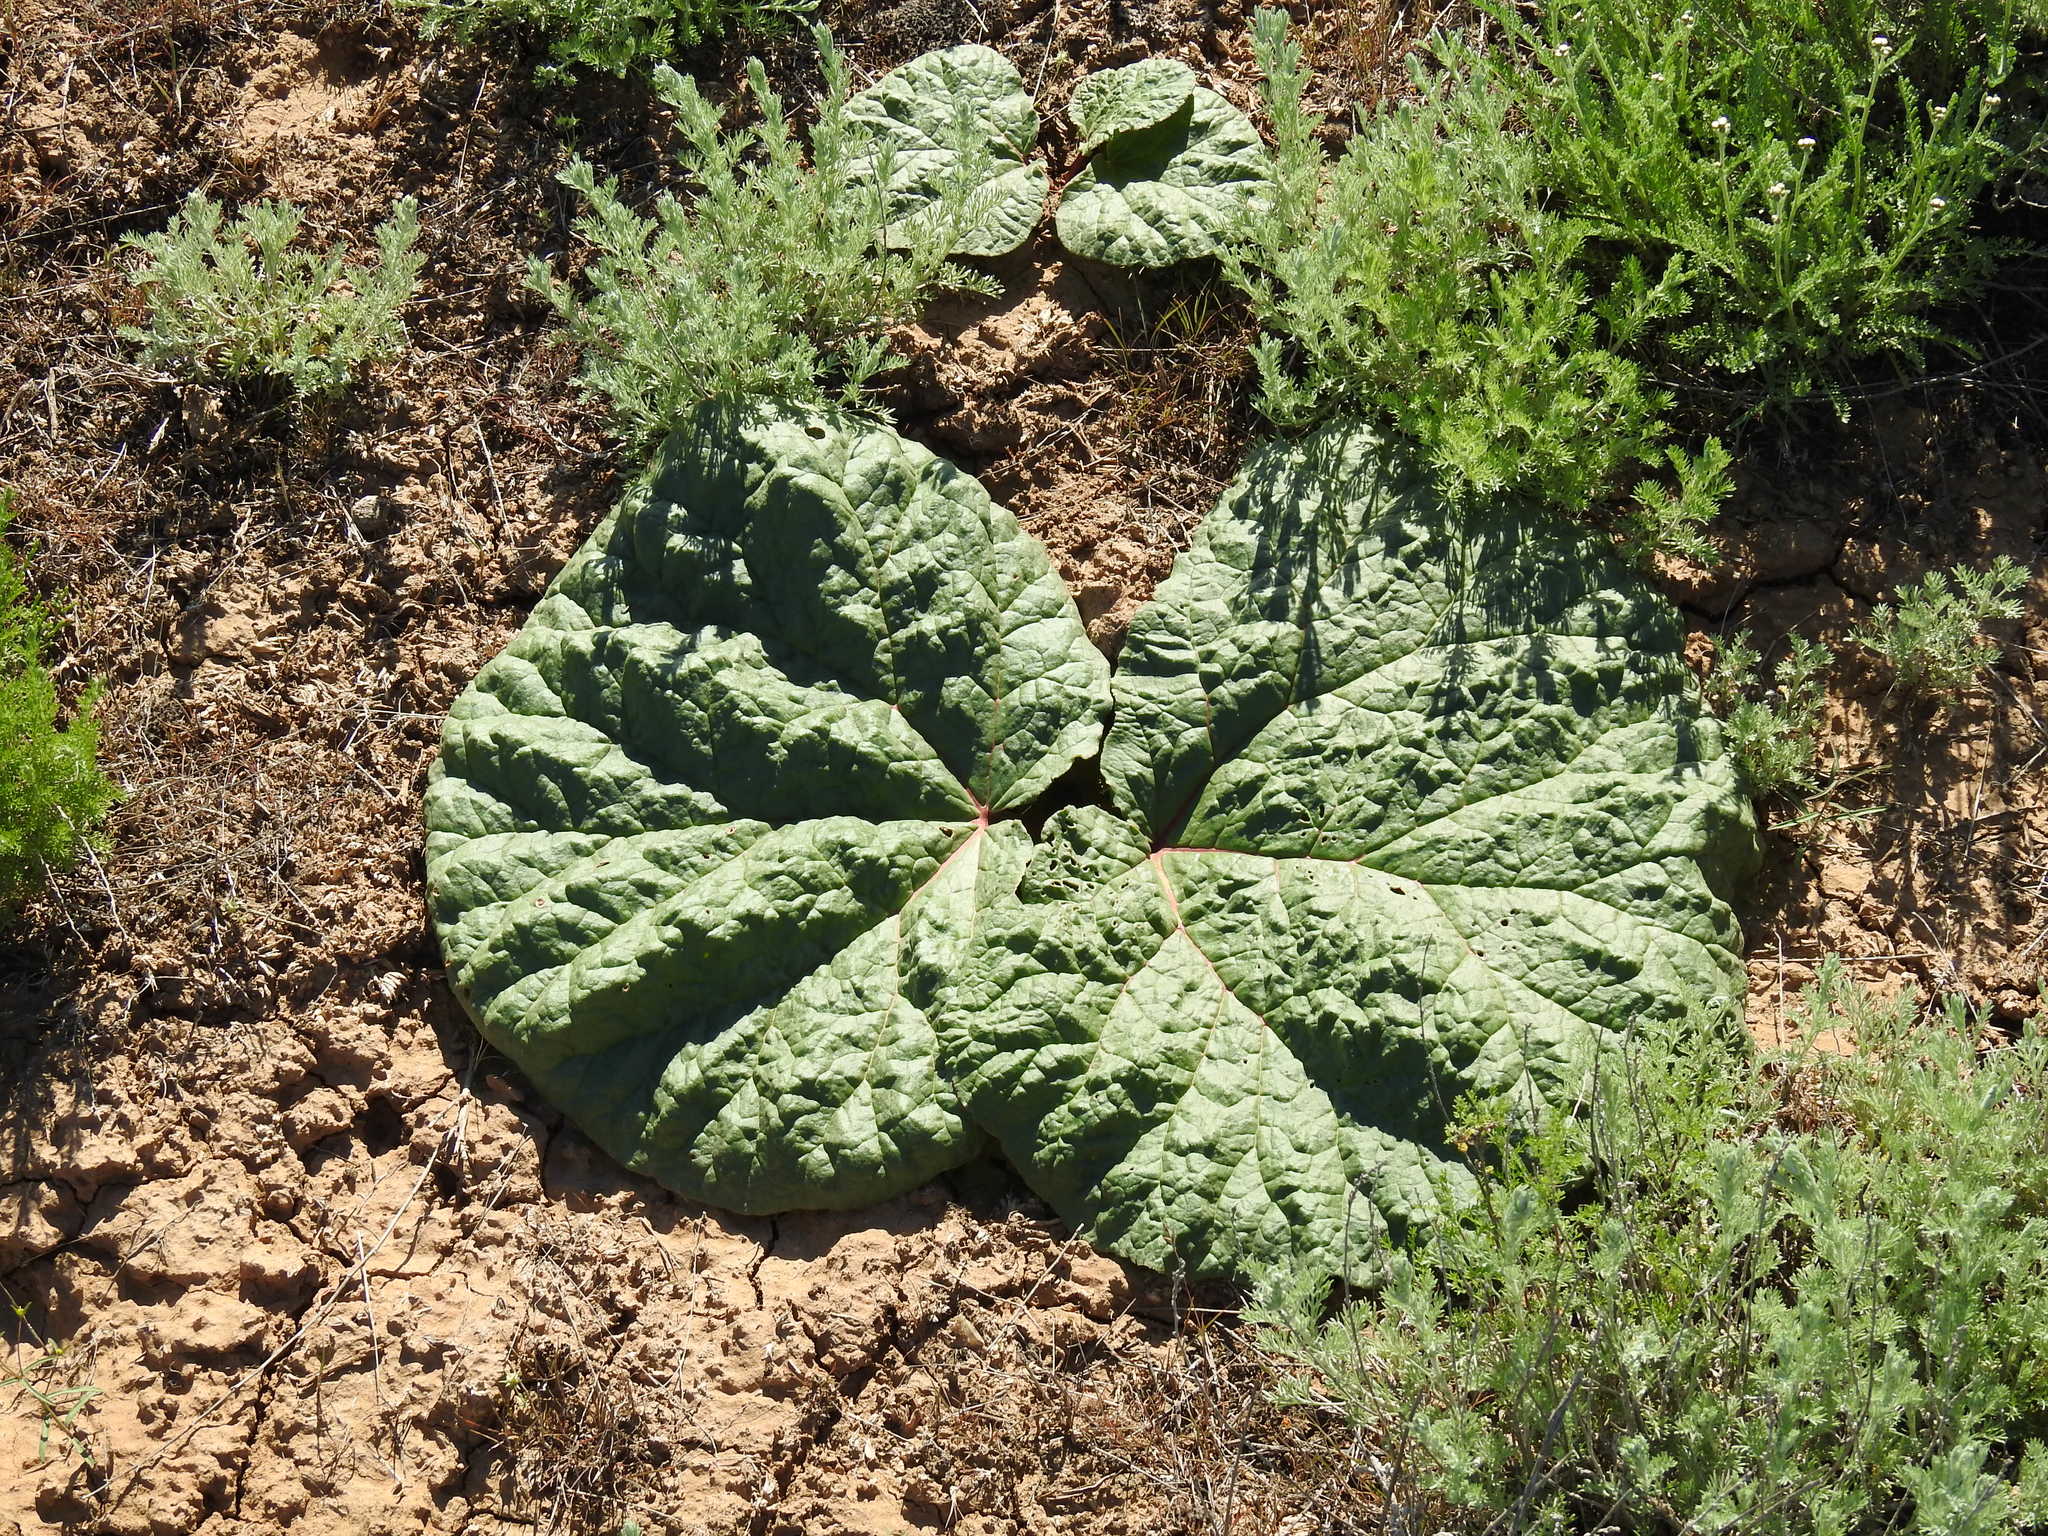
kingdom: Plantae
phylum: Tracheophyta
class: Magnoliopsida
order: Caryophyllales
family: Polygonaceae
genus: Rheum
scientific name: Rheum tataricum
